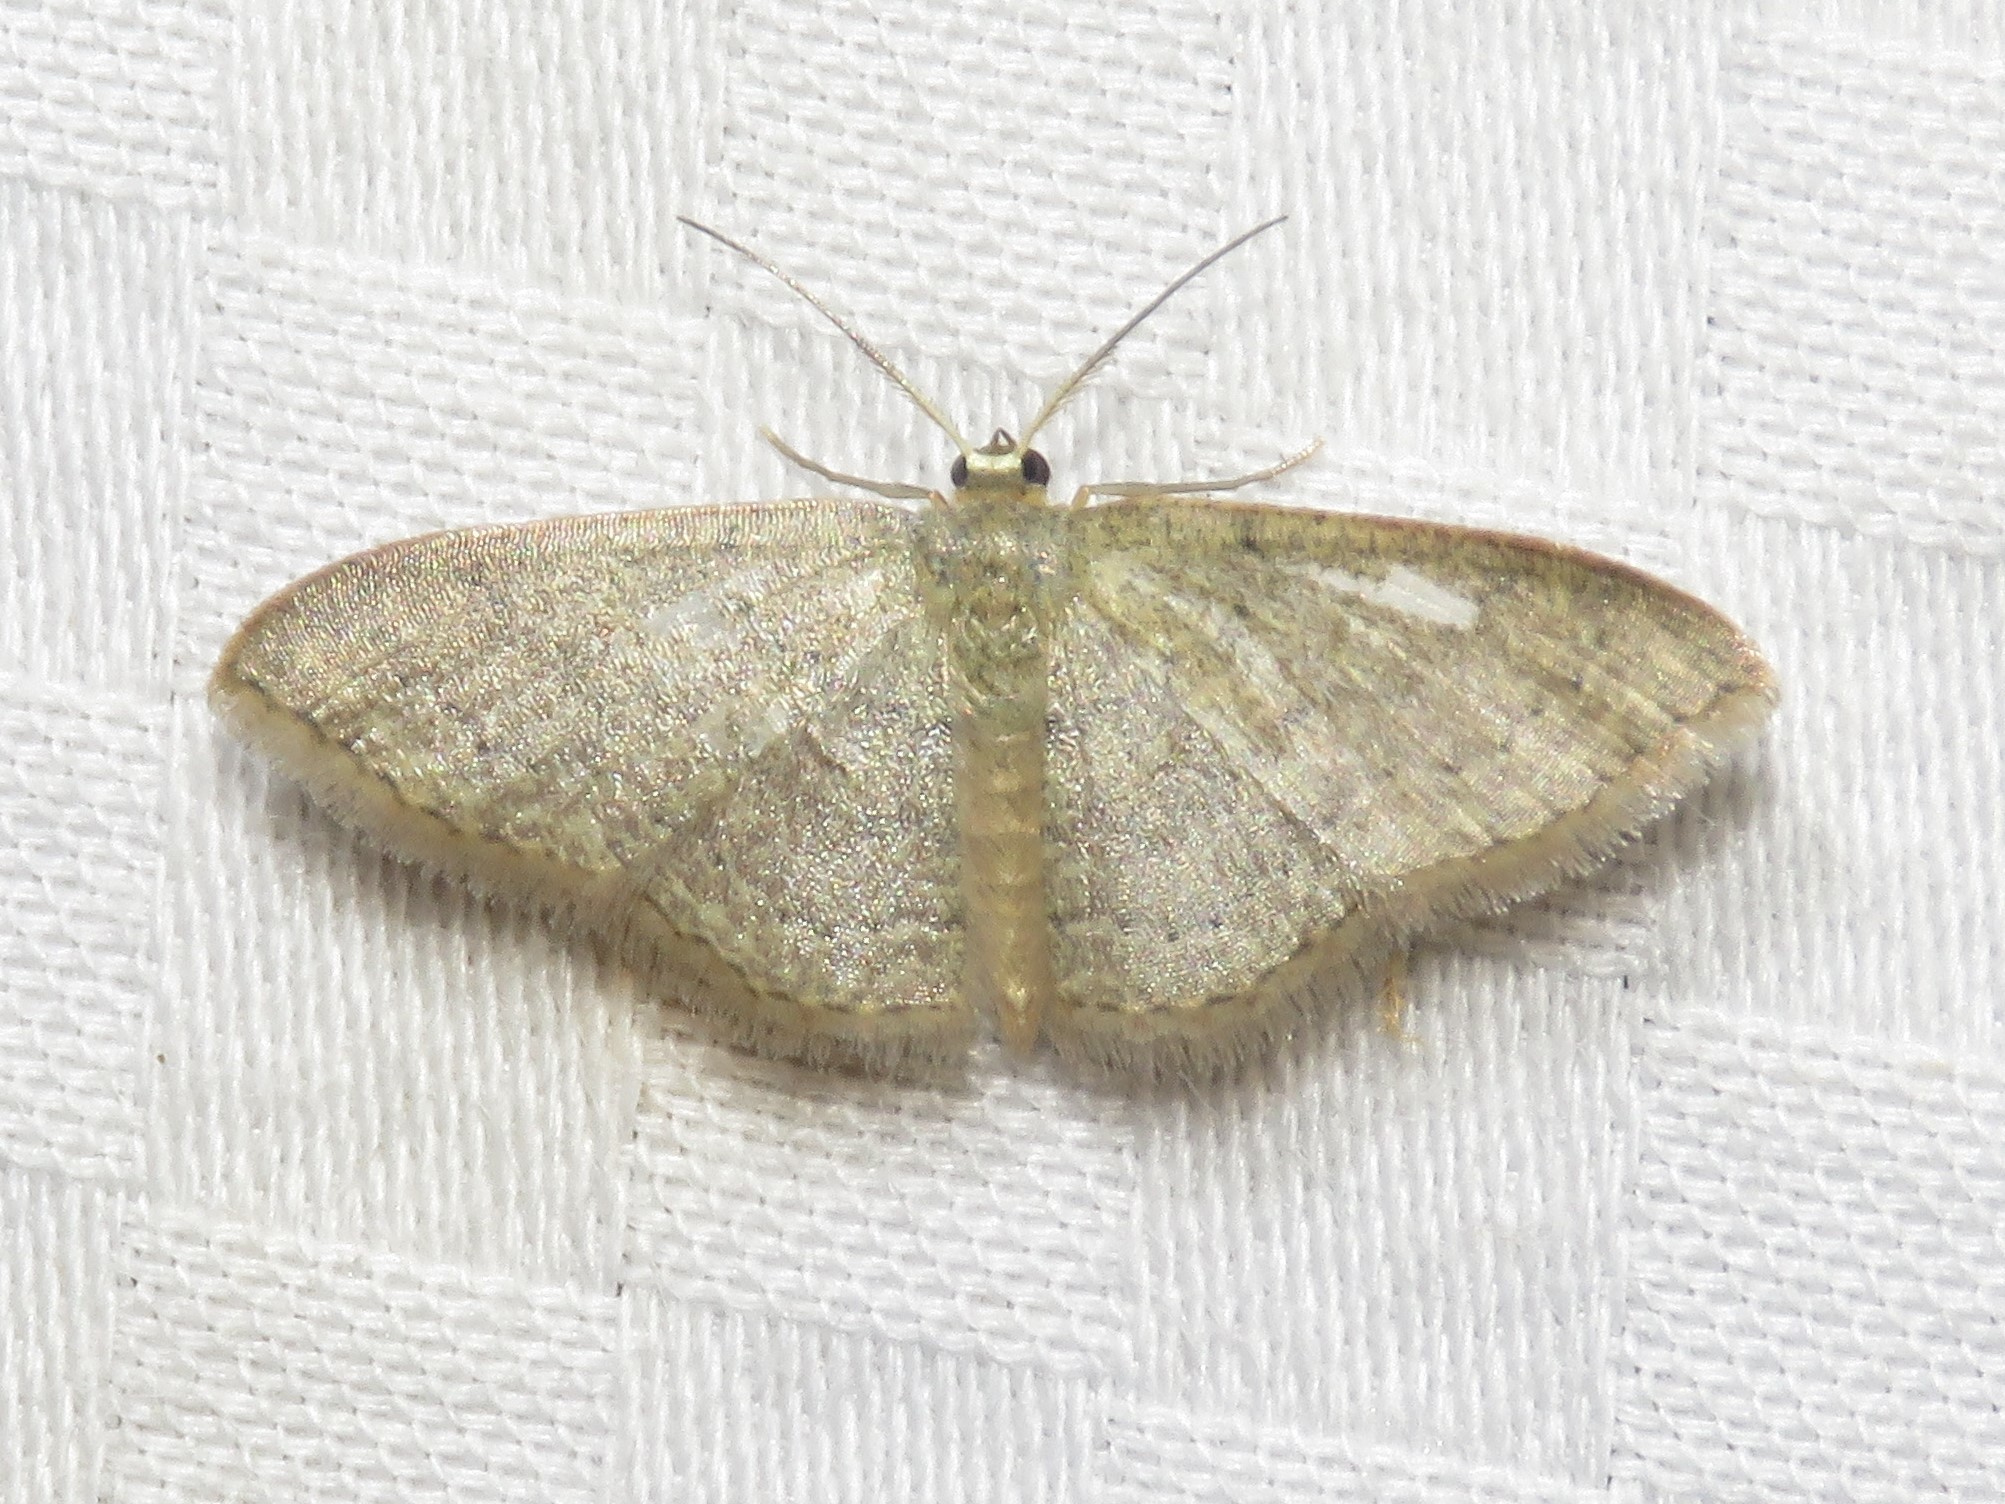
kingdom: Animalia
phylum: Arthropoda
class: Insecta
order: Lepidoptera
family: Geometridae
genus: Pleuroprucha
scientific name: Pleuroprucha insulsaria
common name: Common tan wave
